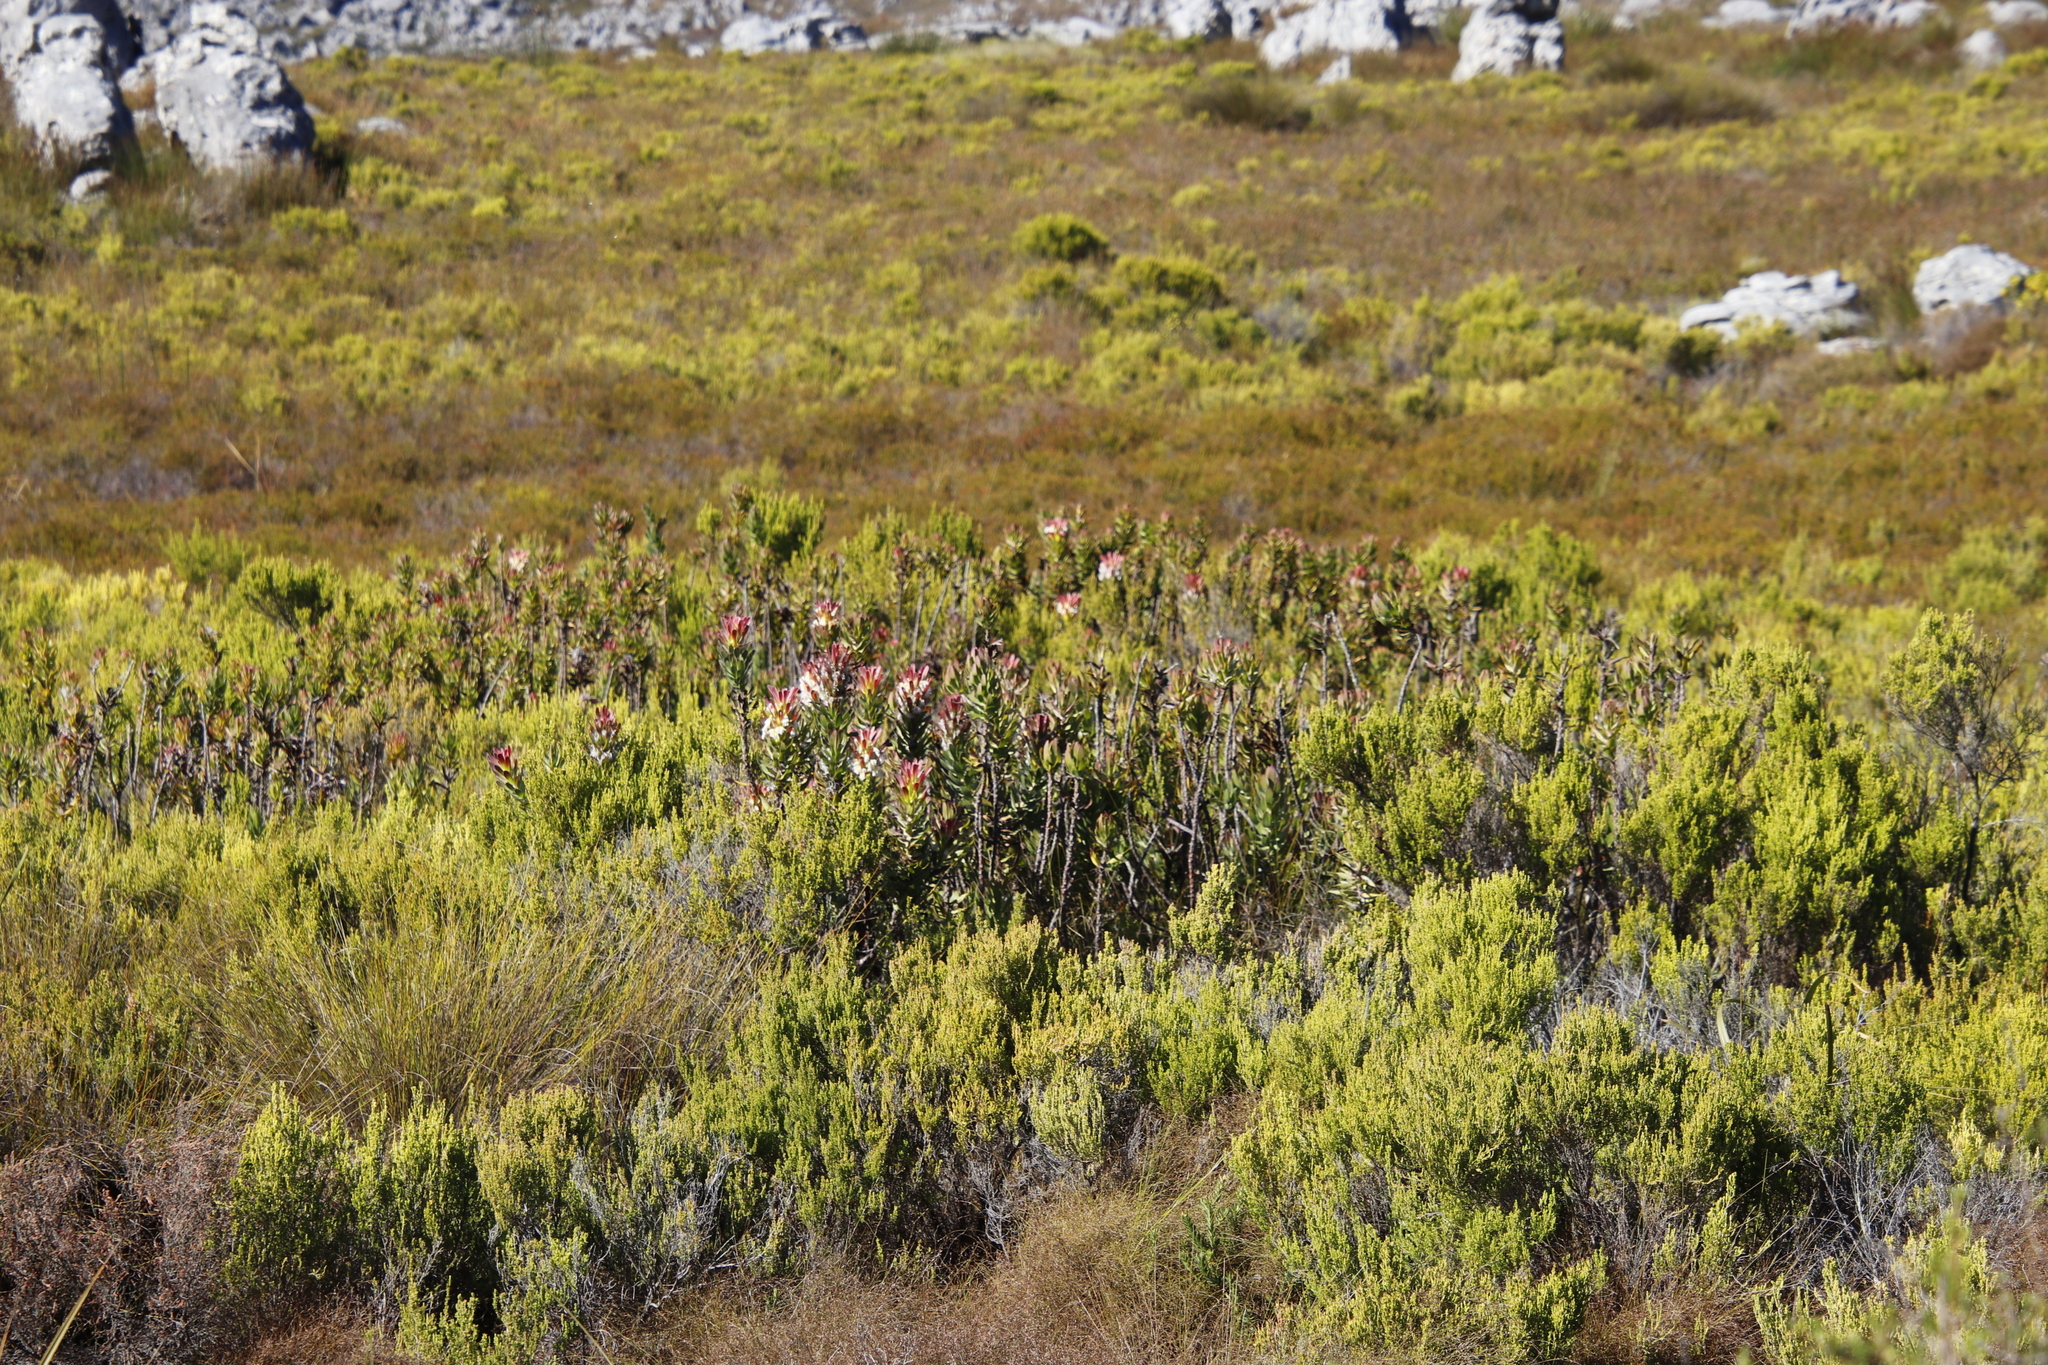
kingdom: Plantae
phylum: Tracheophyta
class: Magnoliopsida
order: Proteales
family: Proteaceae
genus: Mimetes
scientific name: Mimetes cucullatus
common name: Common pagoda
